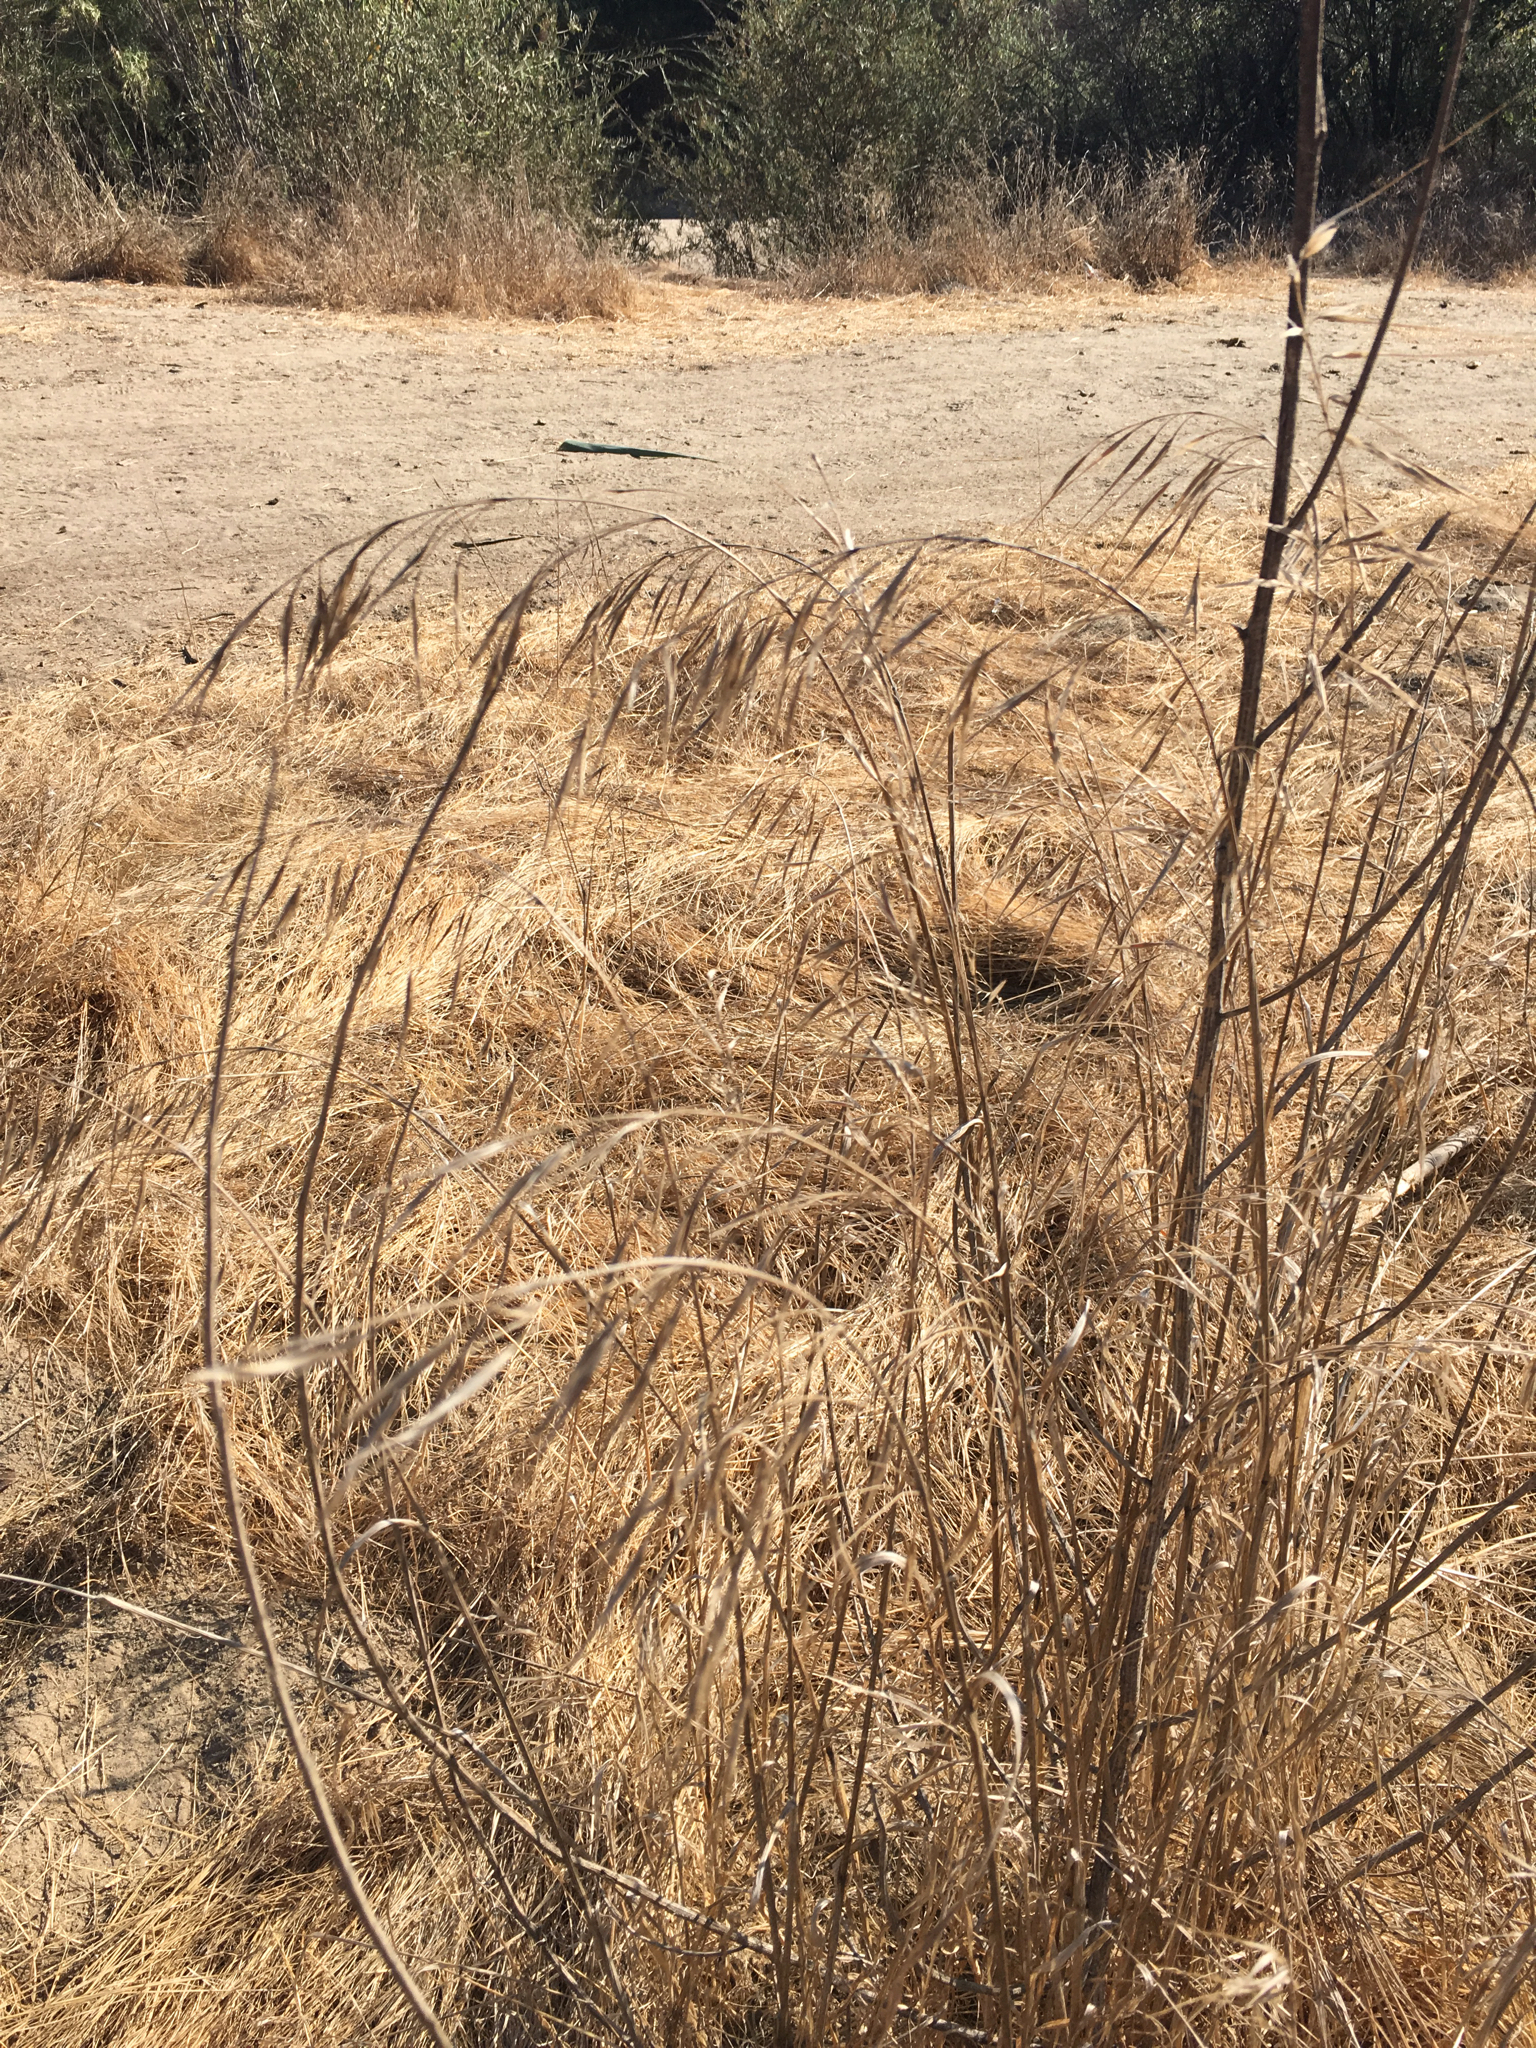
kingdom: Plantae
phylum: Tracheophyta
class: Liliopsida
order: Poales
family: Poaceae
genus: Bromus
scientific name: Bromus diandrus
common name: Ripgut brome
